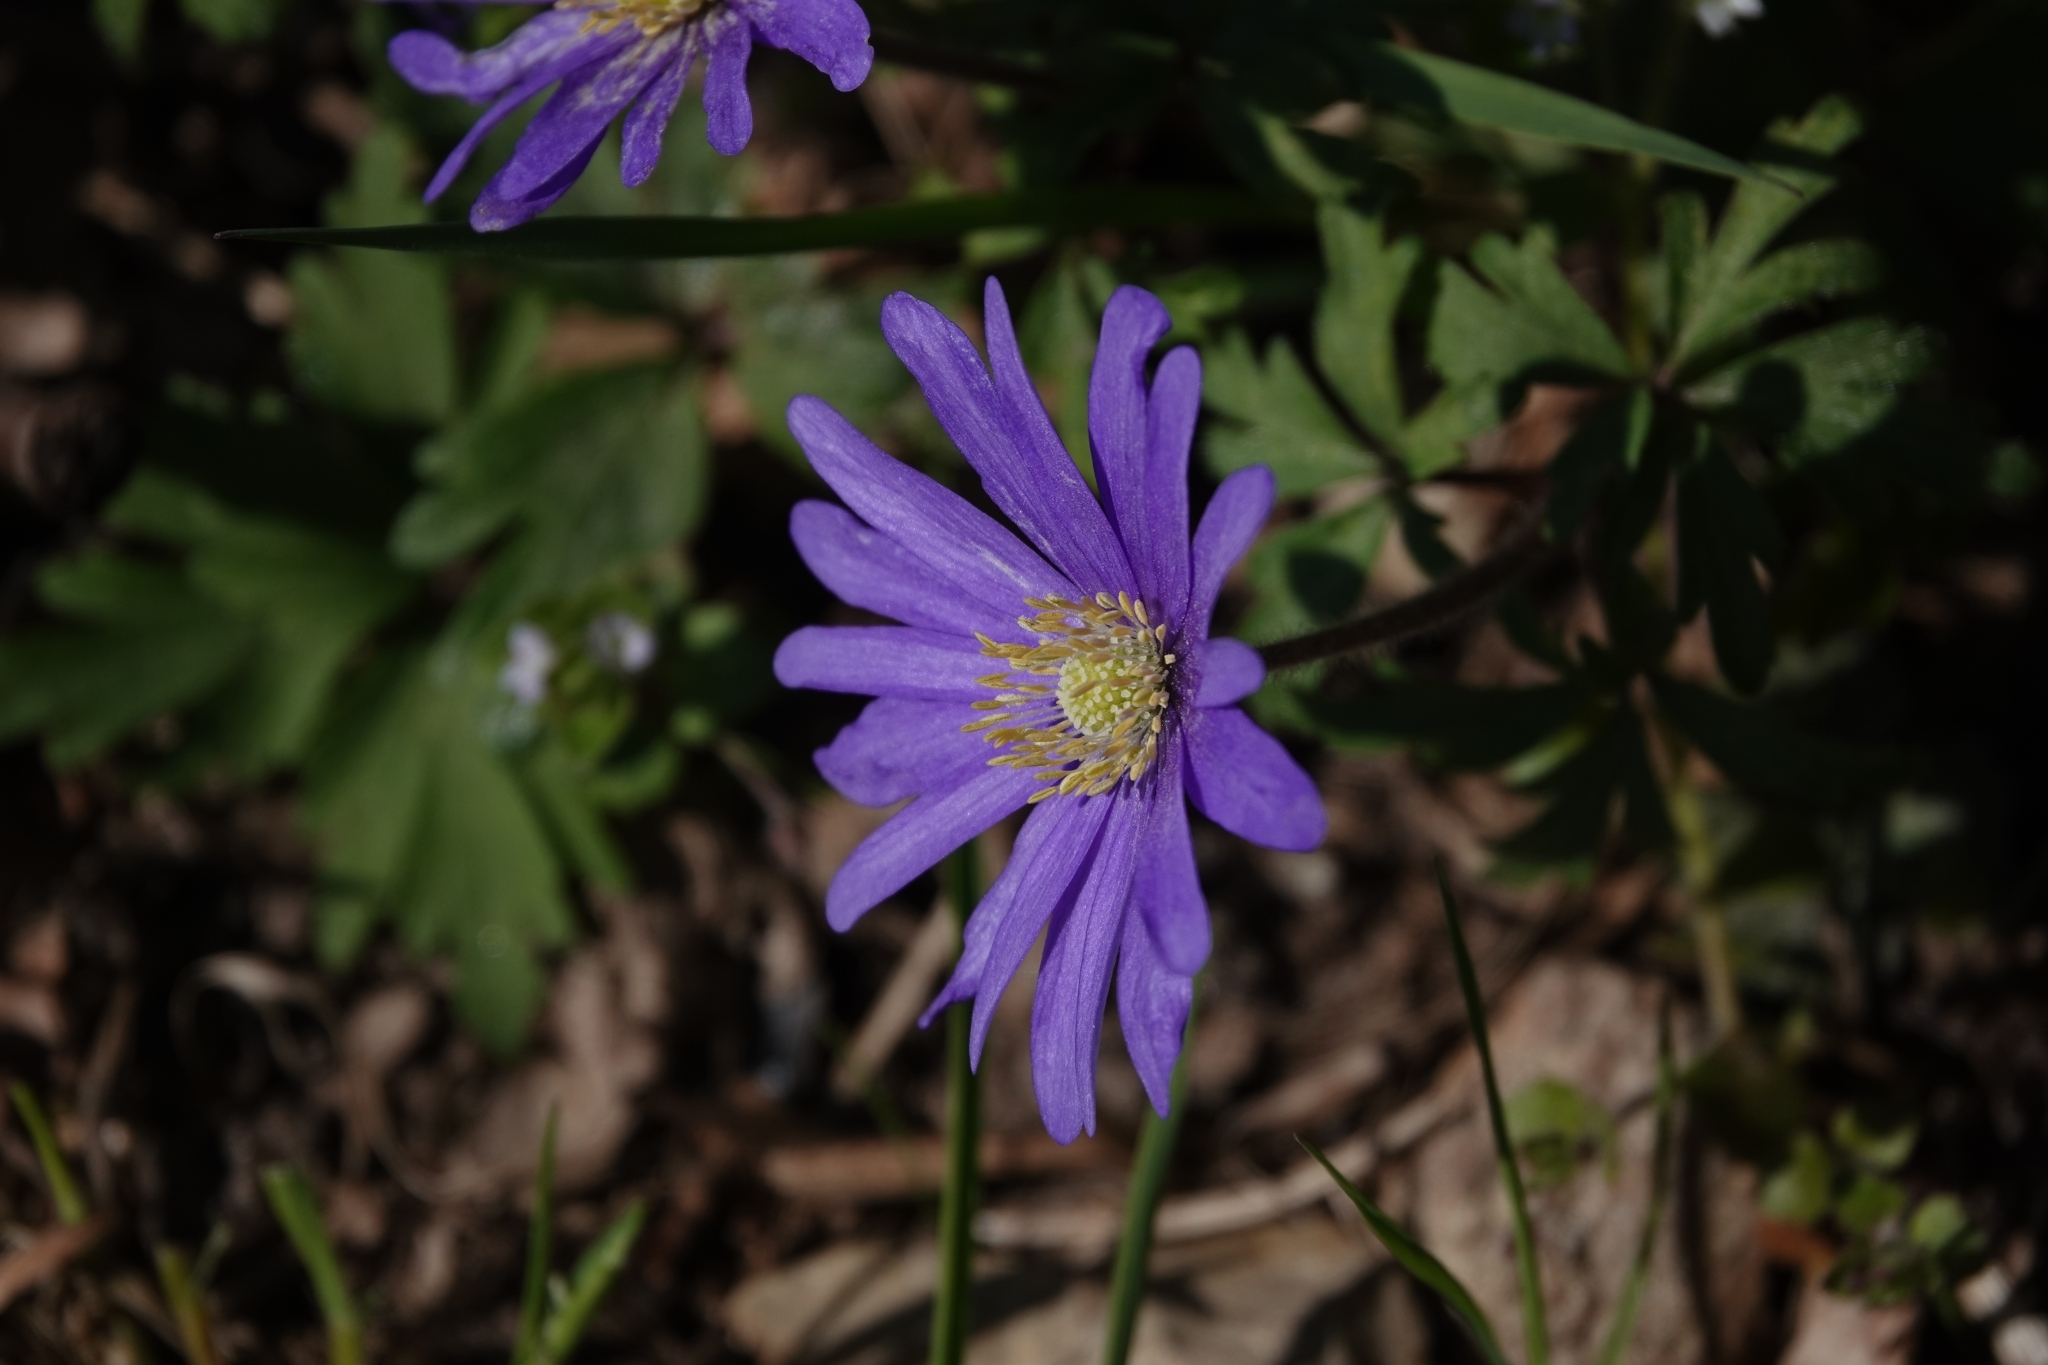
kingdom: Plantae
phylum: Tracheophyta
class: Magnoliopsida
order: Ranunculales
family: Ranunculaceae
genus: Anemone
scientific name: Anemone blanda
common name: Balkan anemone
